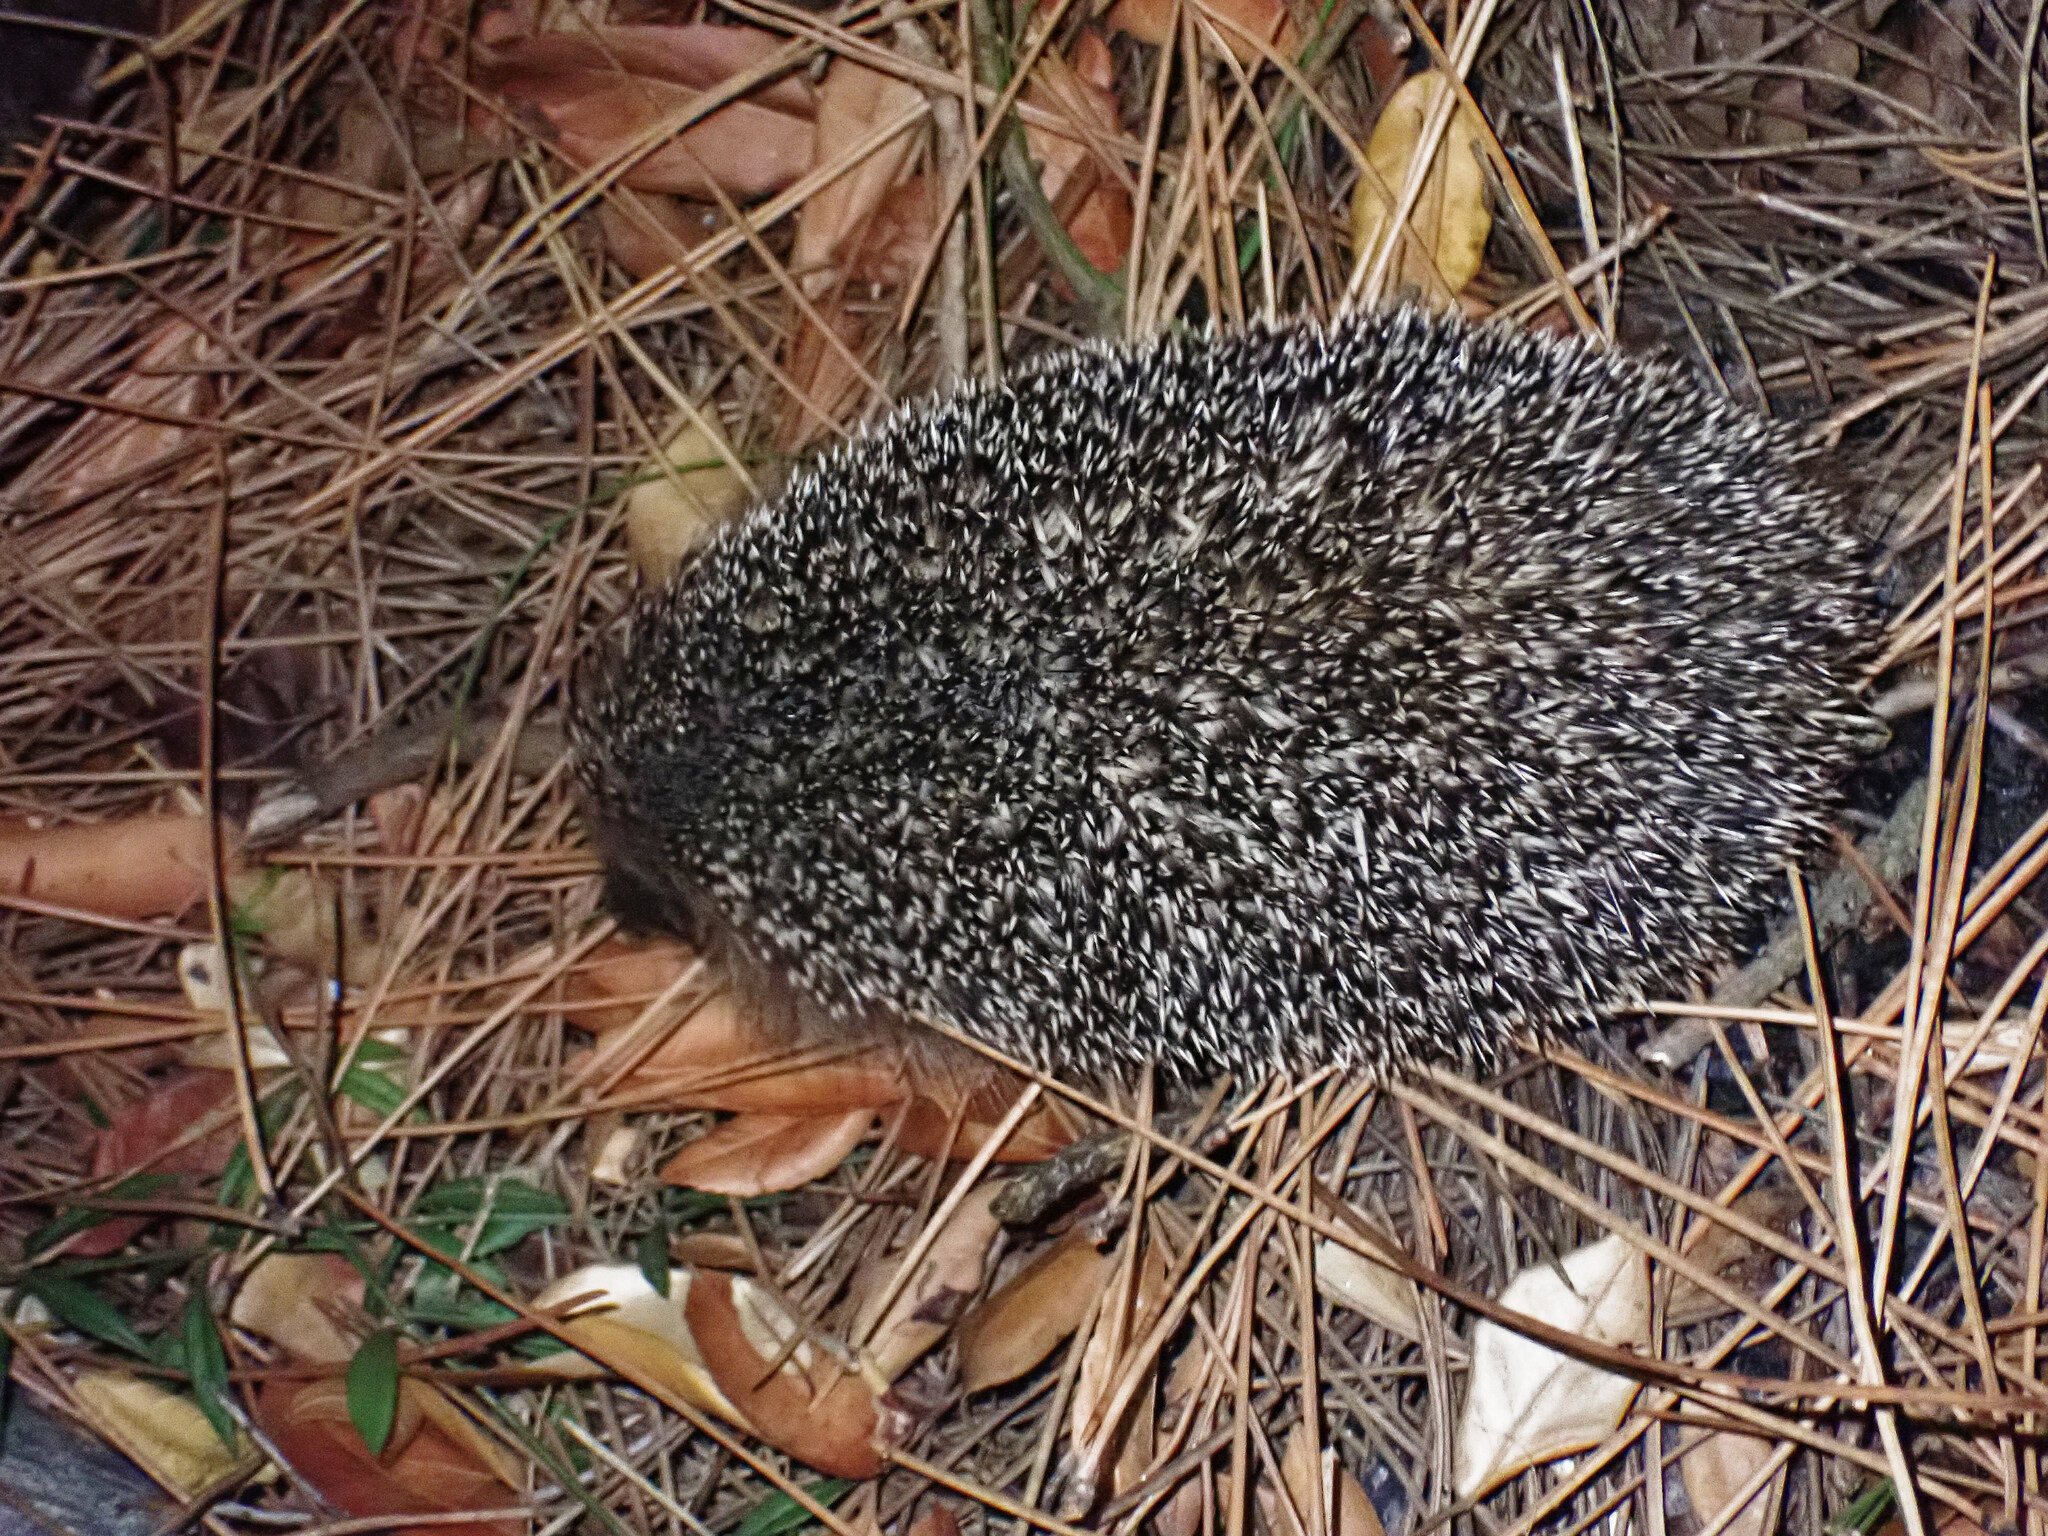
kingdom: Animalia
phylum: Chordata
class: Mammalia
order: Erinaceomorpha
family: Erinaceidae
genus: Erinaceus
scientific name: Erinaceus europaeus
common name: West european hedgehog
